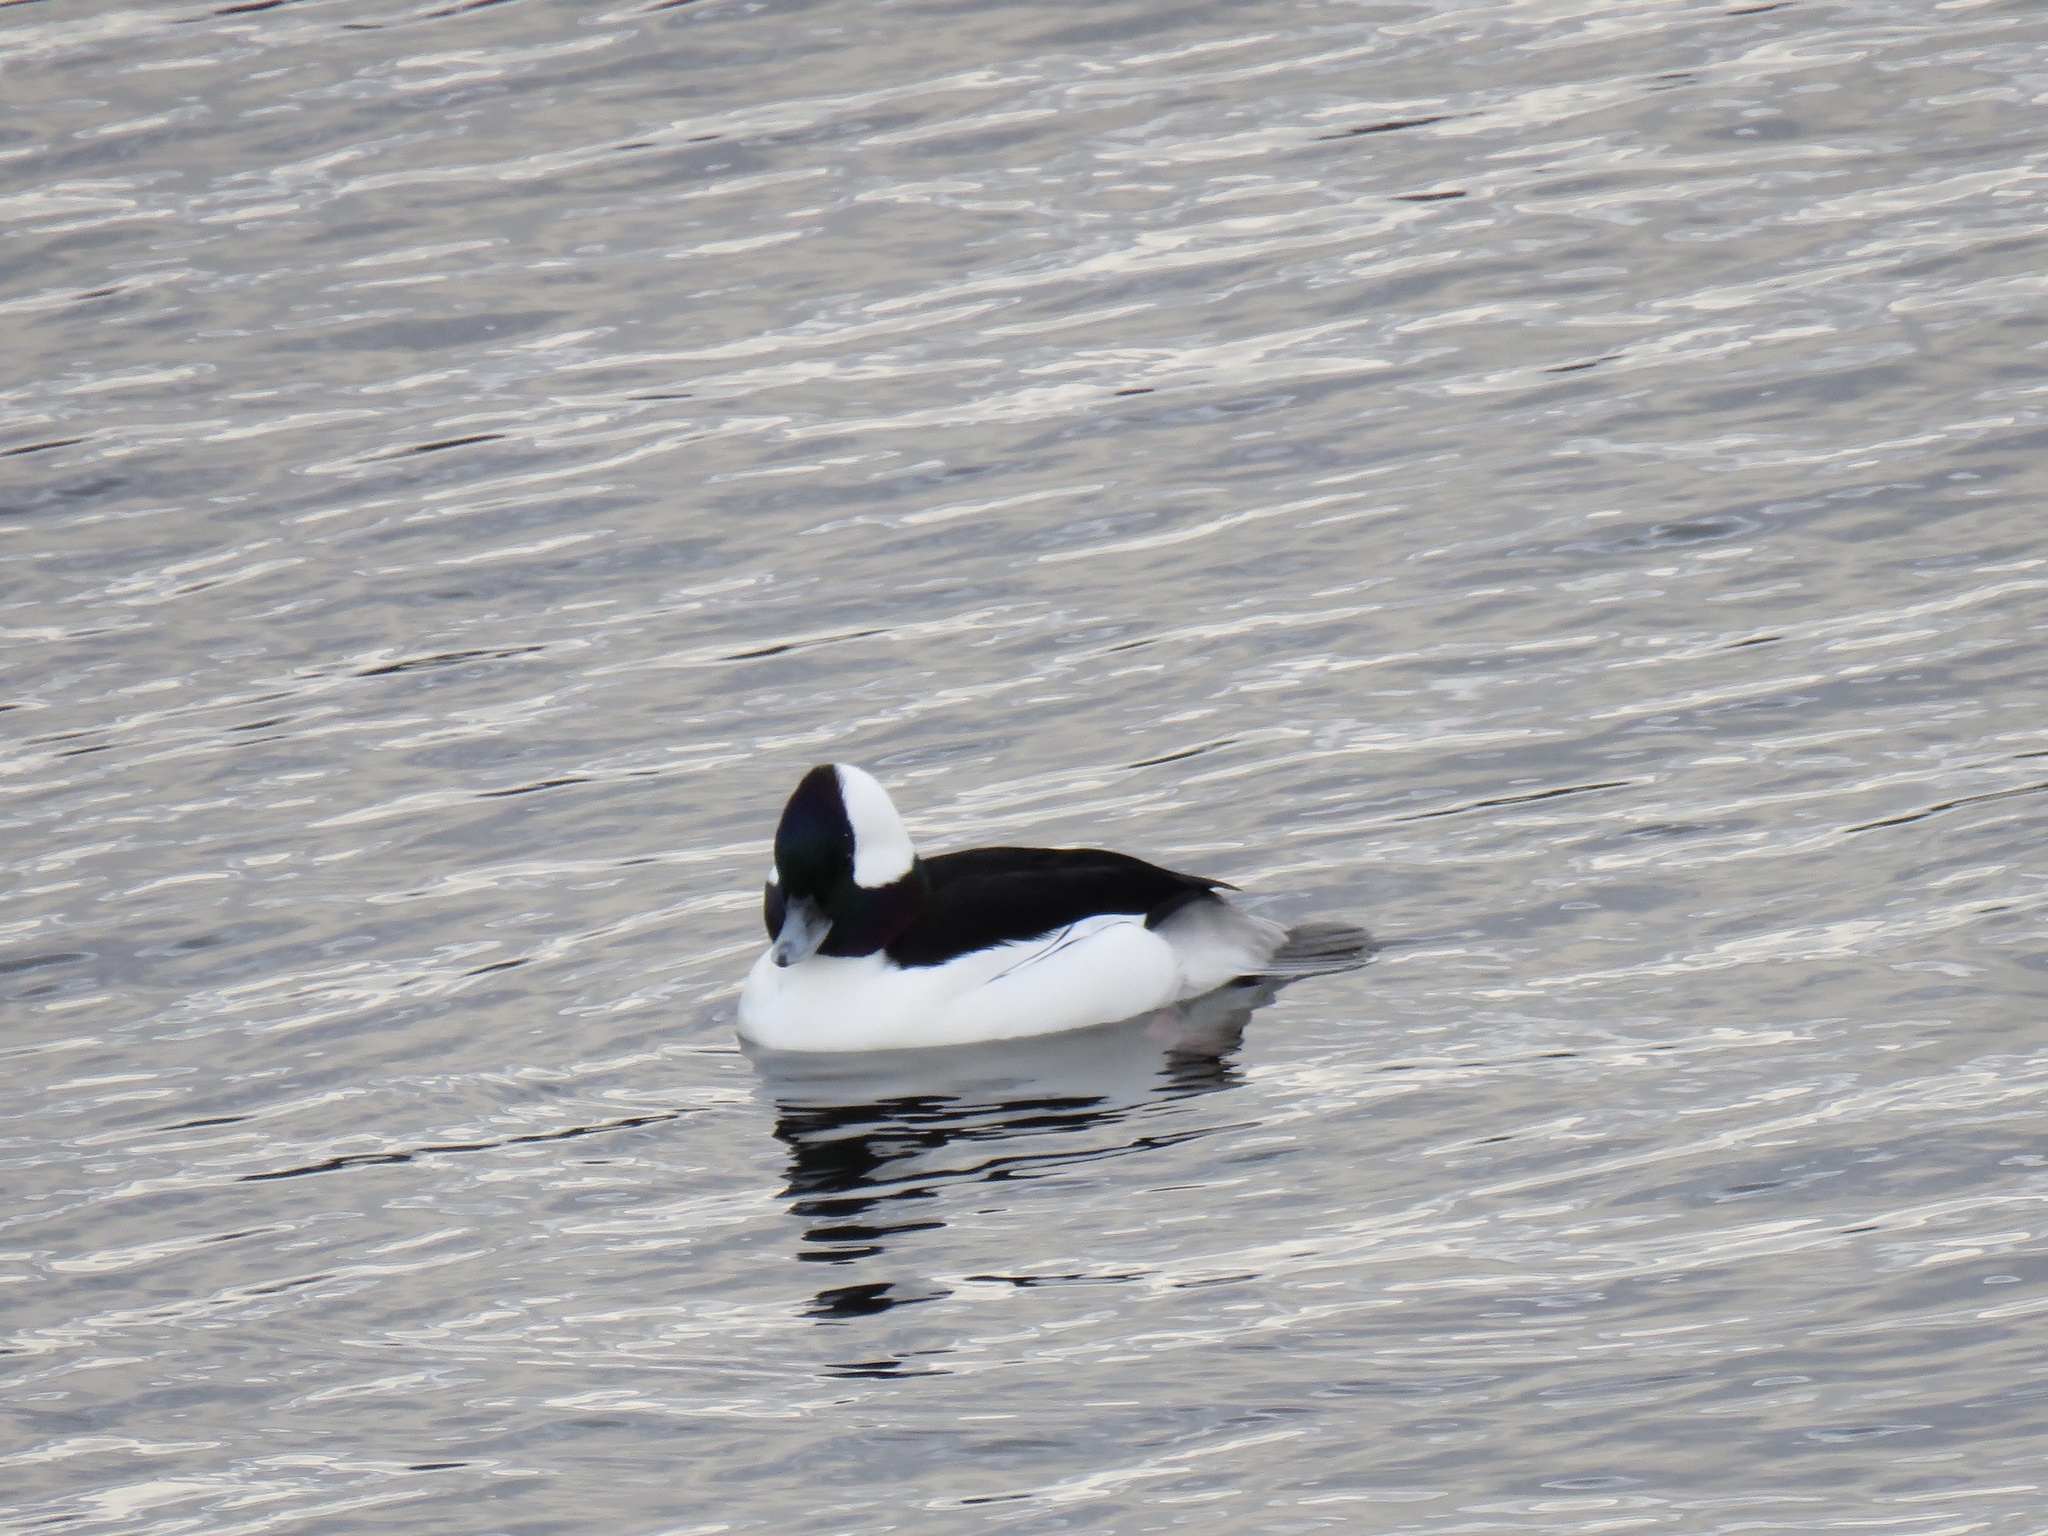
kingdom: Animalia
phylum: Chordata
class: Aves
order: Anseriformes
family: Anatidae
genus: Bucephala
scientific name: Bucephala albeola
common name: Bufflehead
